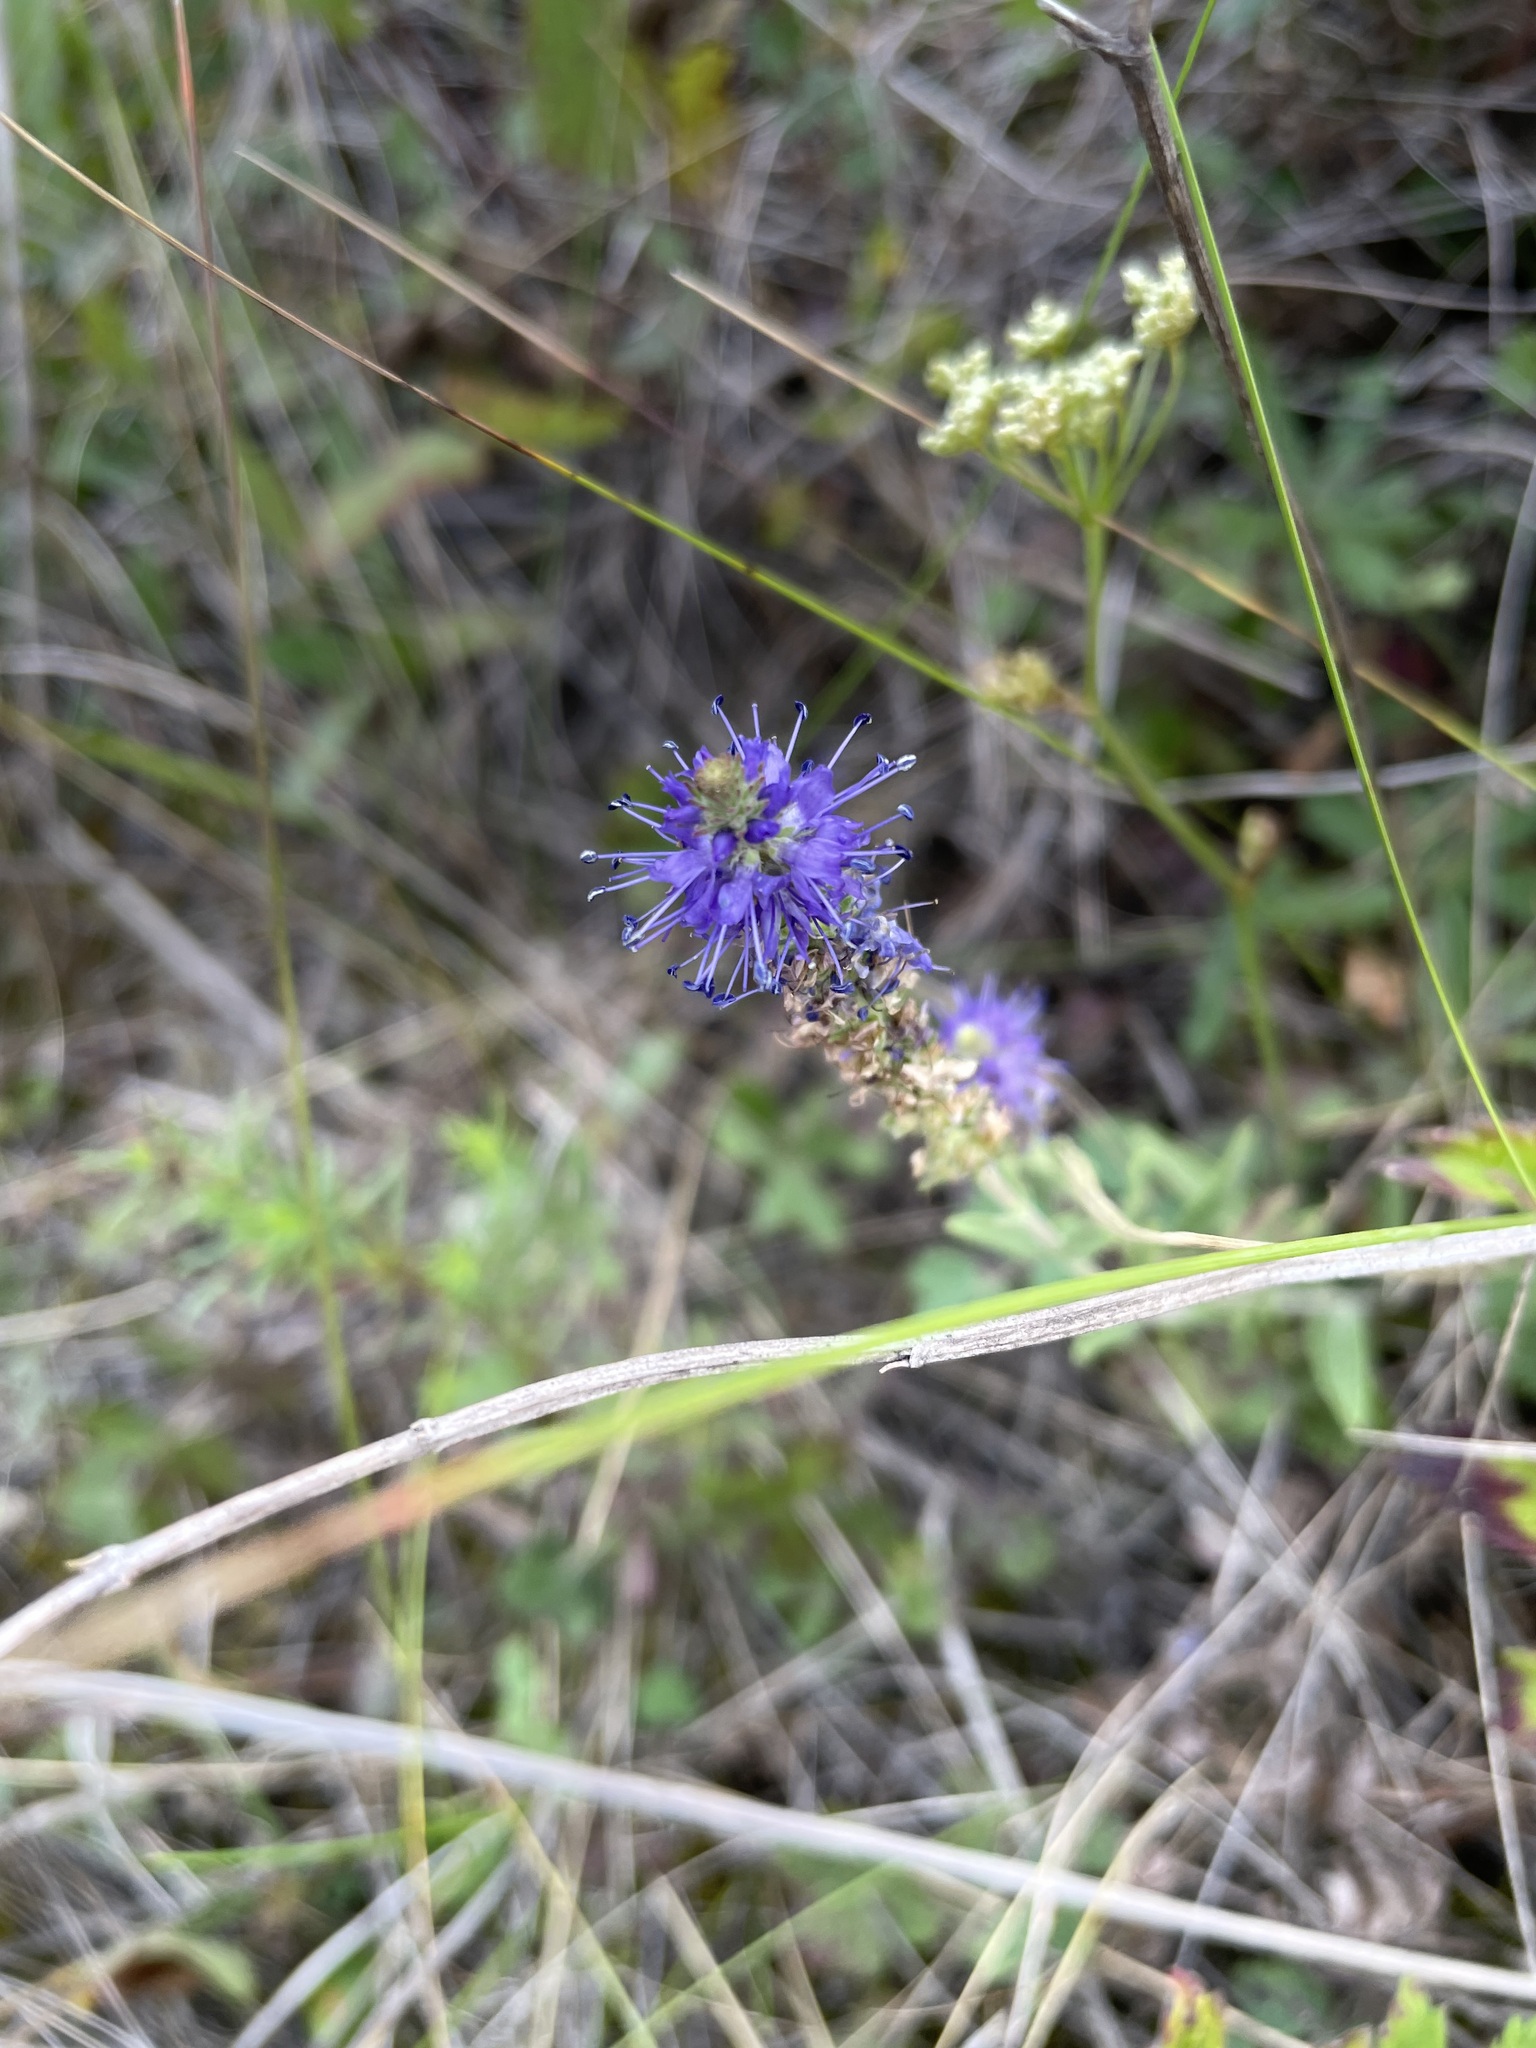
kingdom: Plantae
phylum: Tracheophyta
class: Magnoliopsida
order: Lamiales
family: Plantaginaceae
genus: Veronica
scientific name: Veronica spicata
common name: Spiked speedwell
